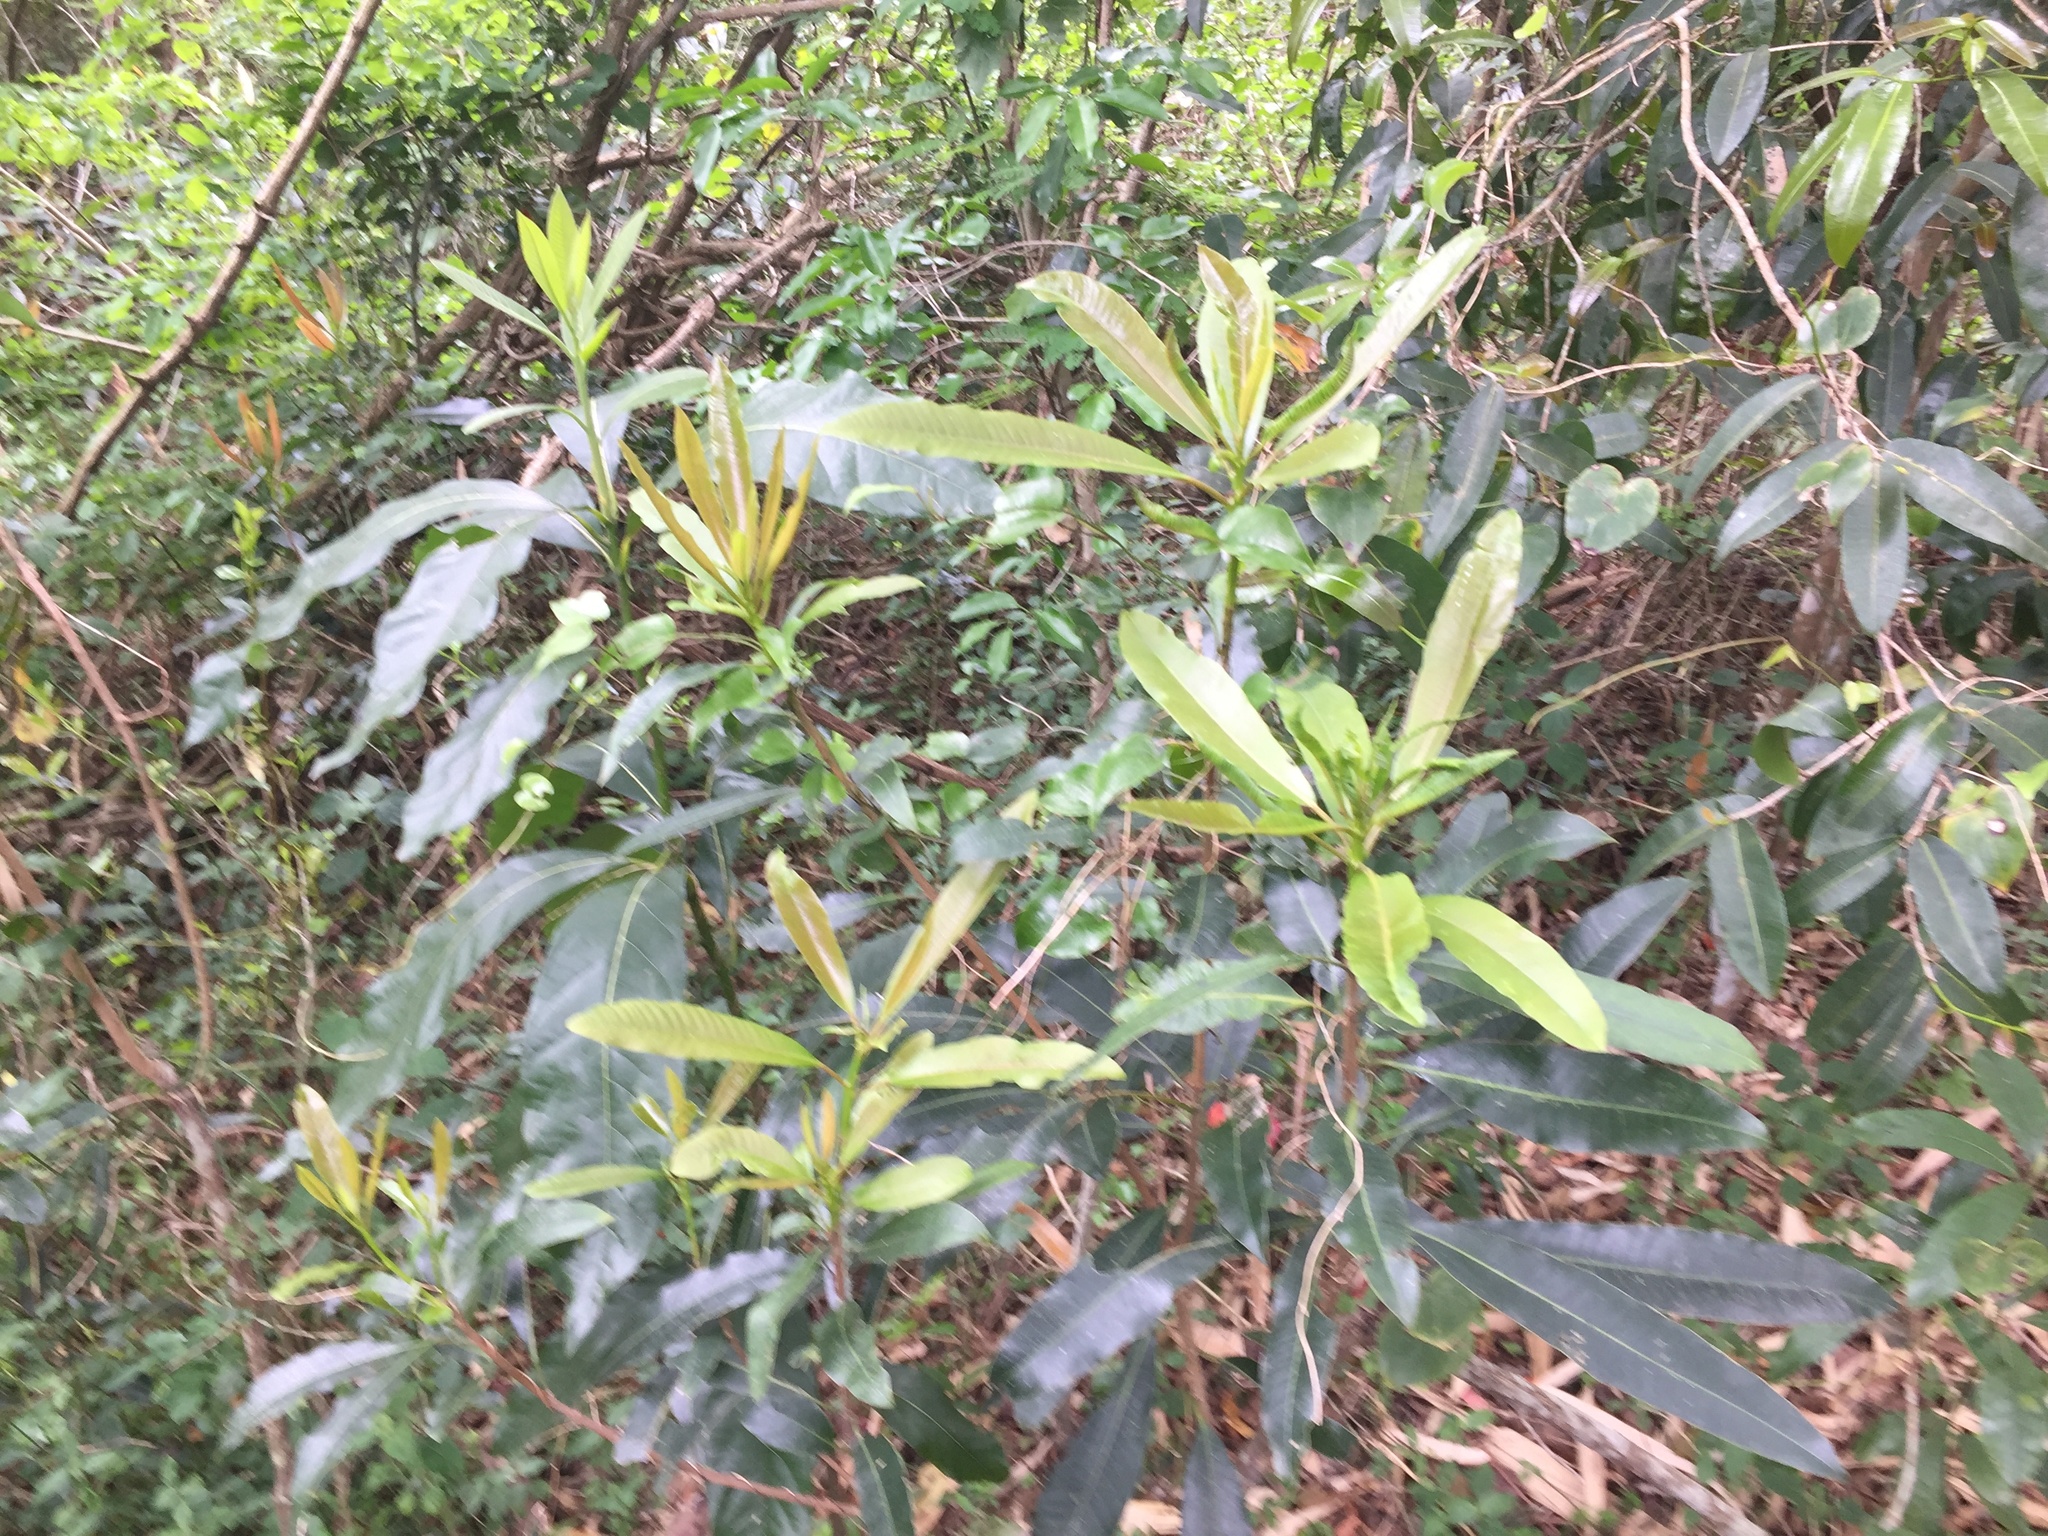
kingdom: Plantae
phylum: Tracheophyta
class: Magnoliopsida
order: Sapindales
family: Anacardiaceae
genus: Protorhus
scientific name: Protorhus longifolia
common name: Red-beech
